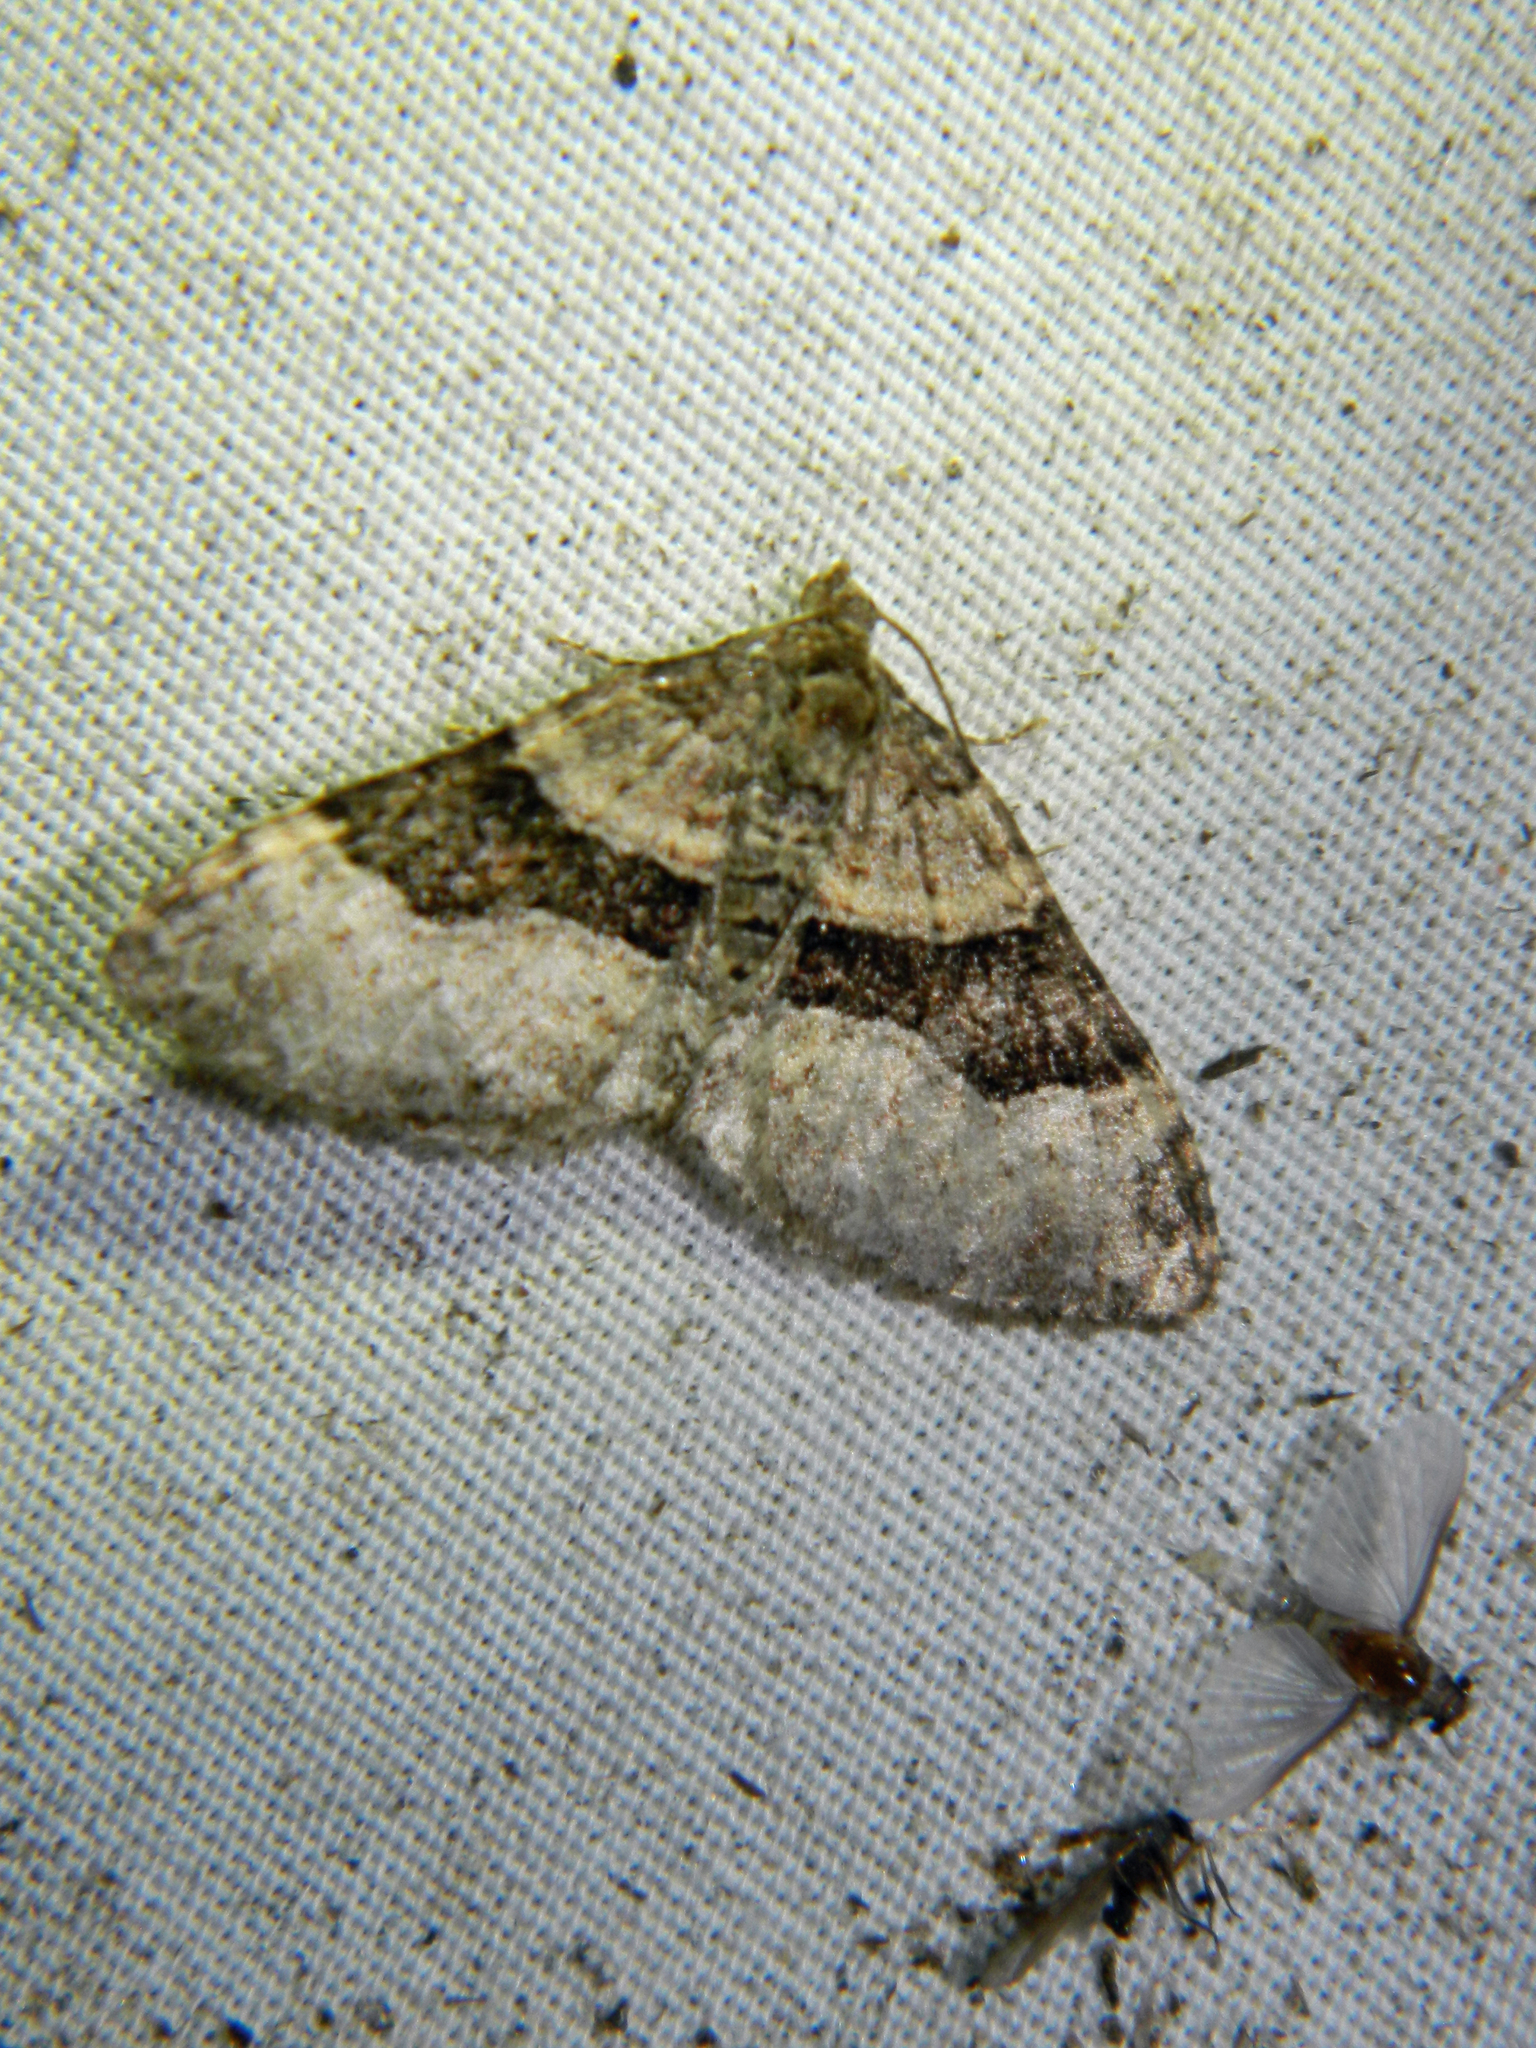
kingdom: Animalia
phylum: Arthropoda
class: Insecta
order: Lepidoptera
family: Geometridae
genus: Xanthorhoe
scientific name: Xanthorhoe lacustrata
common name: Toothed brown carpet
